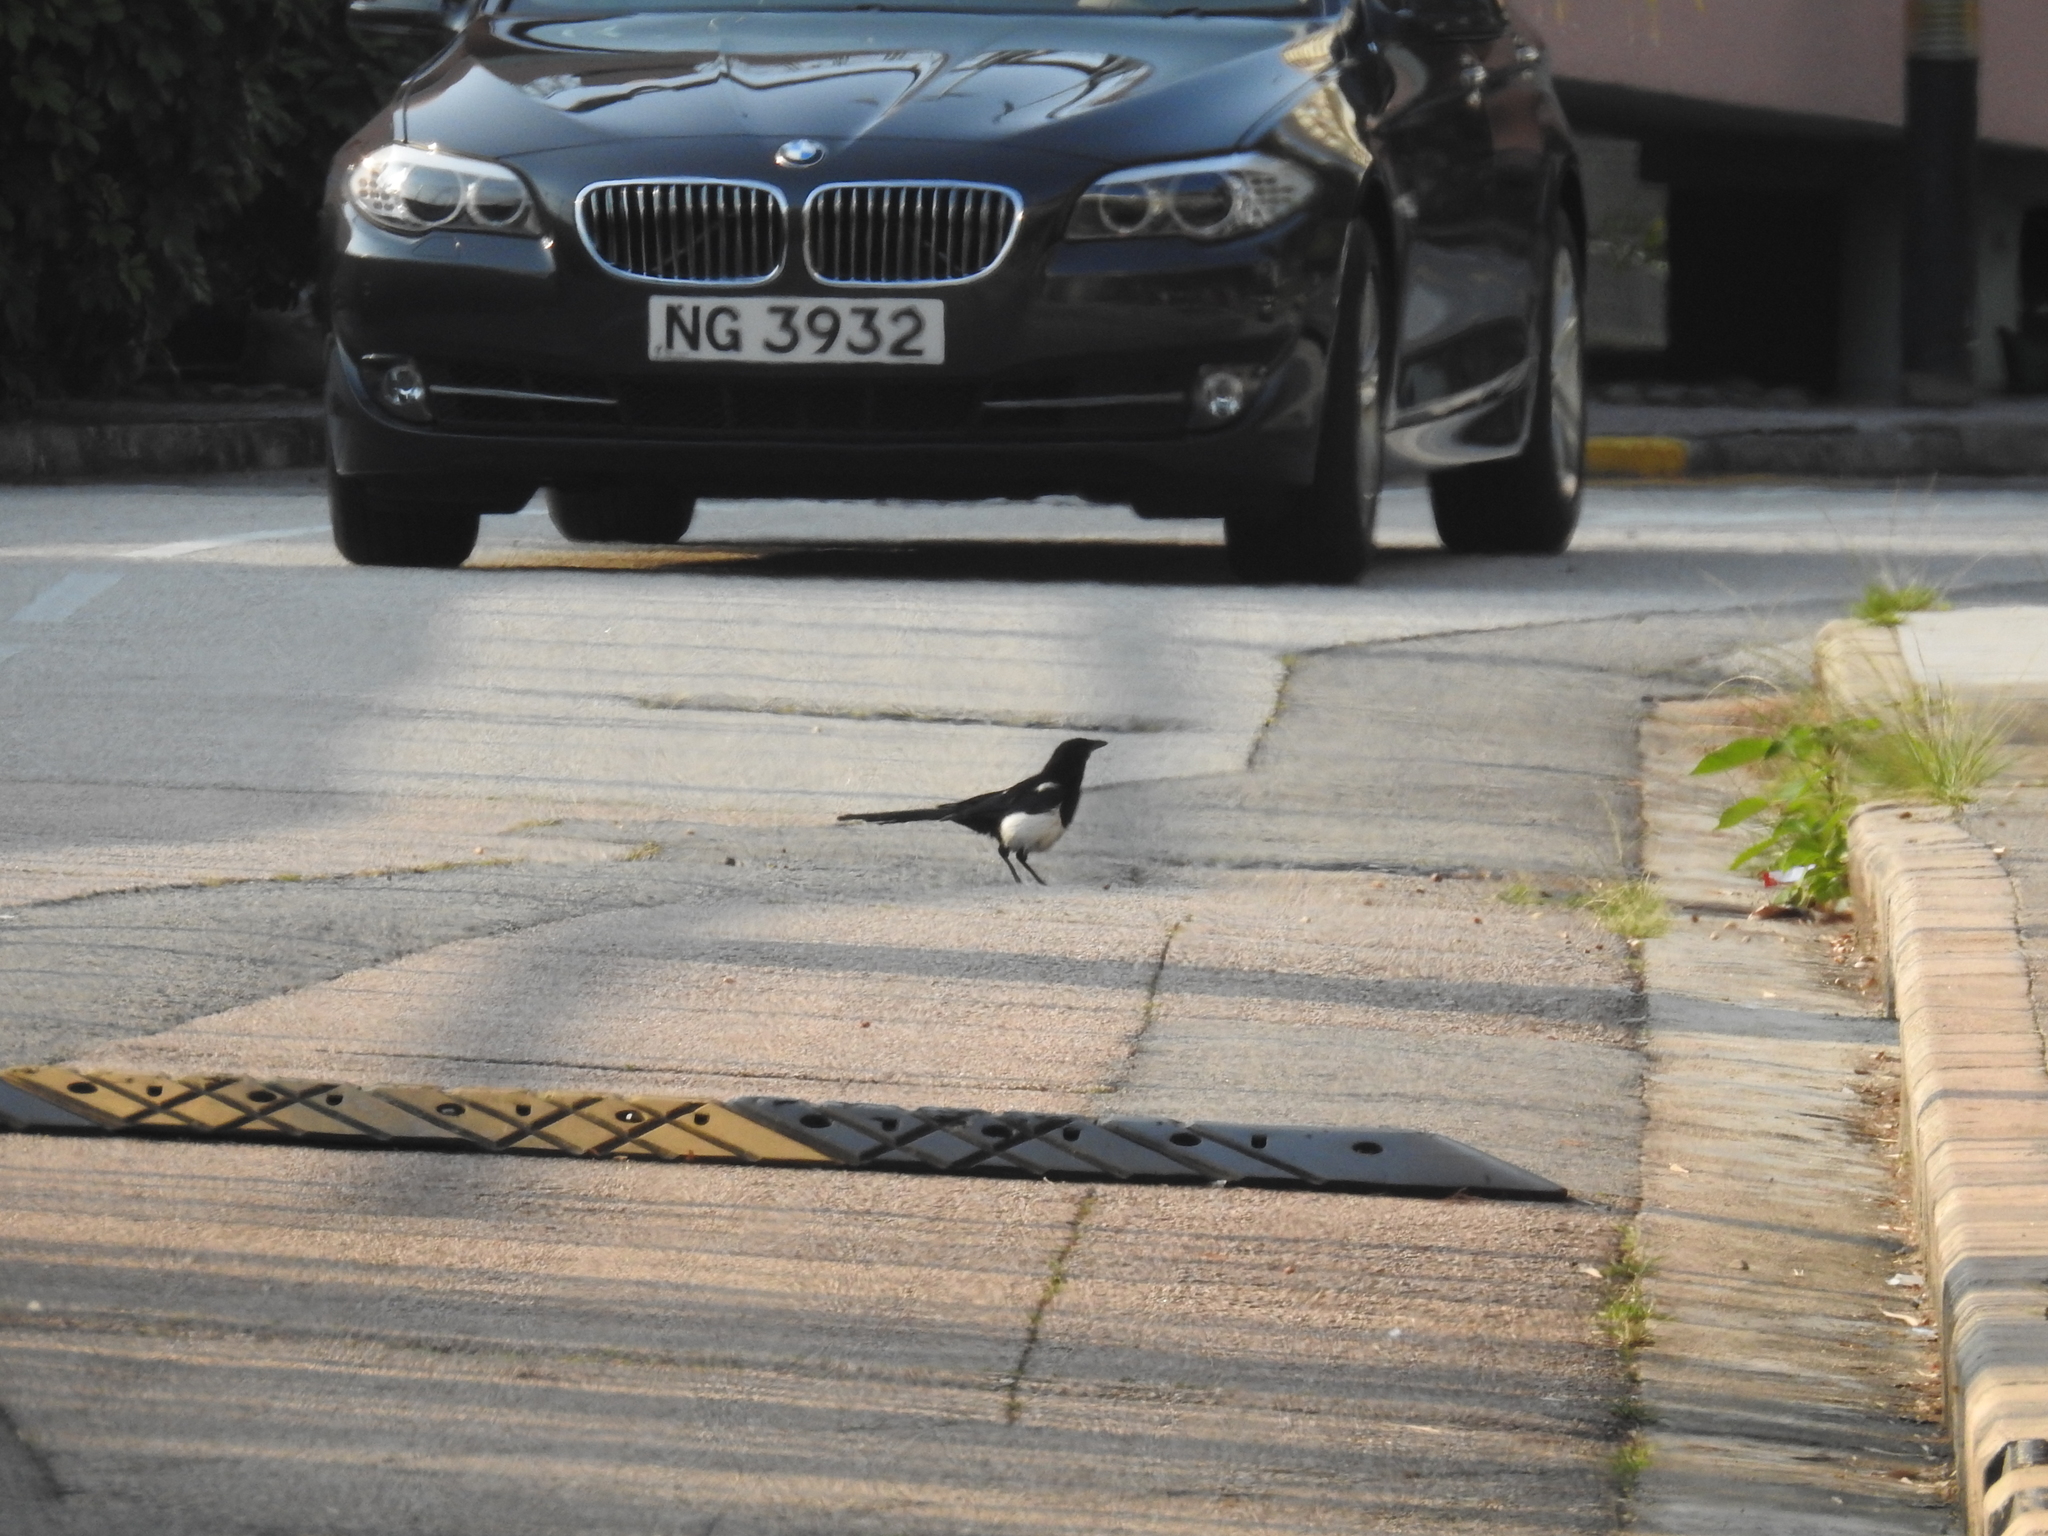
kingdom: Animalia
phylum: Chordata
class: Aves
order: Passeriformes
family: Corvidae
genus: Pica
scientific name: Pica serica
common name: Oriental magpie
